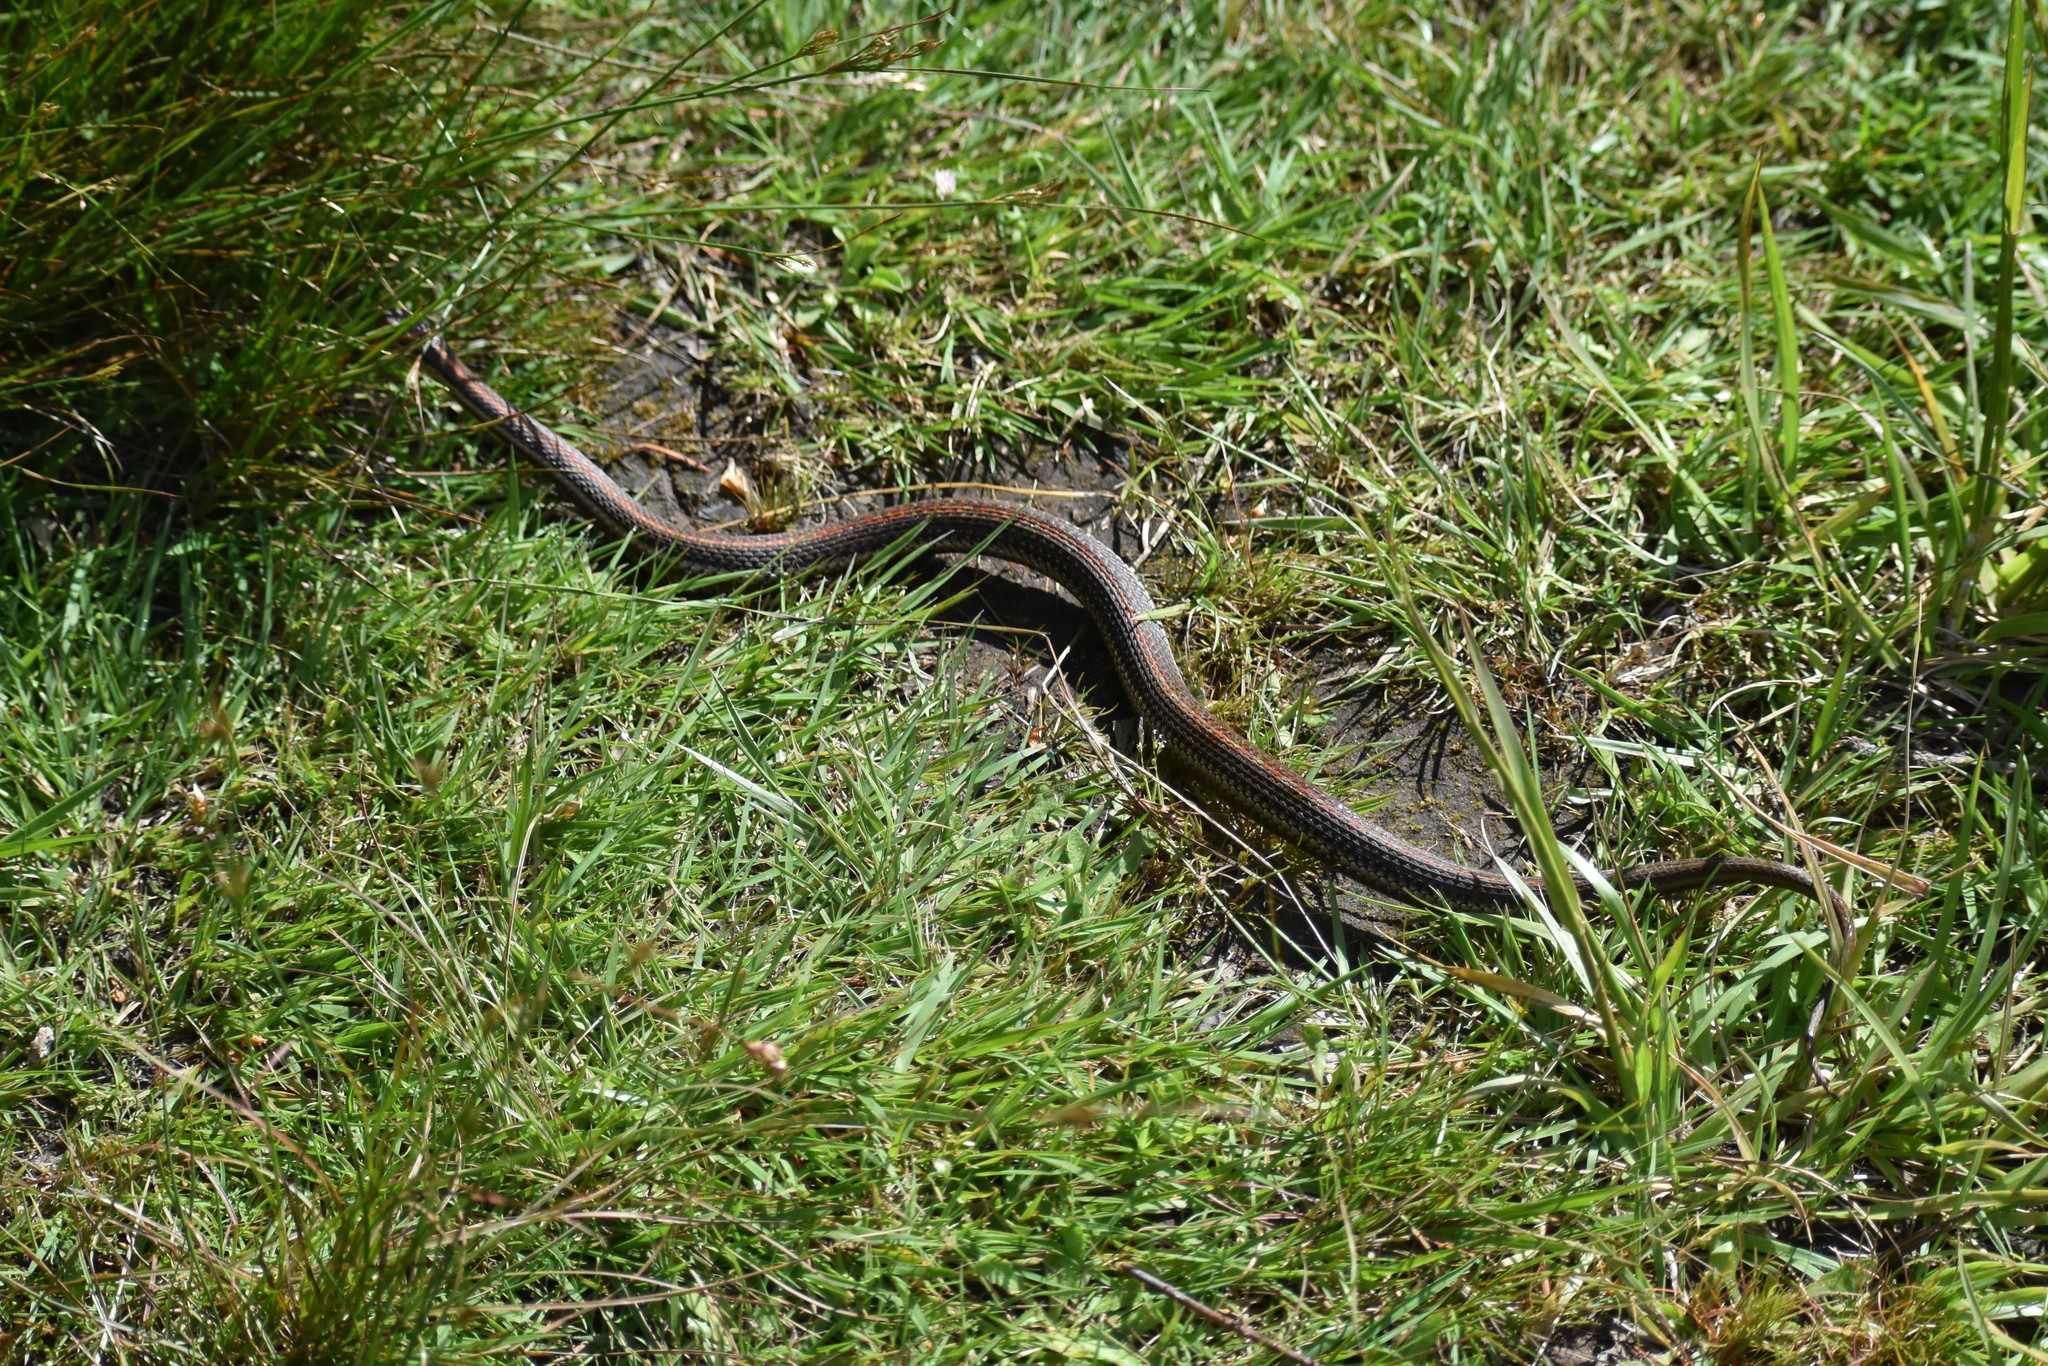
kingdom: Animalia
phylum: Chordata
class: Squamata
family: Colubridae
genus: Thamnophis
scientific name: Thamnophis ordinoides
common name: Northwestern garter snake
